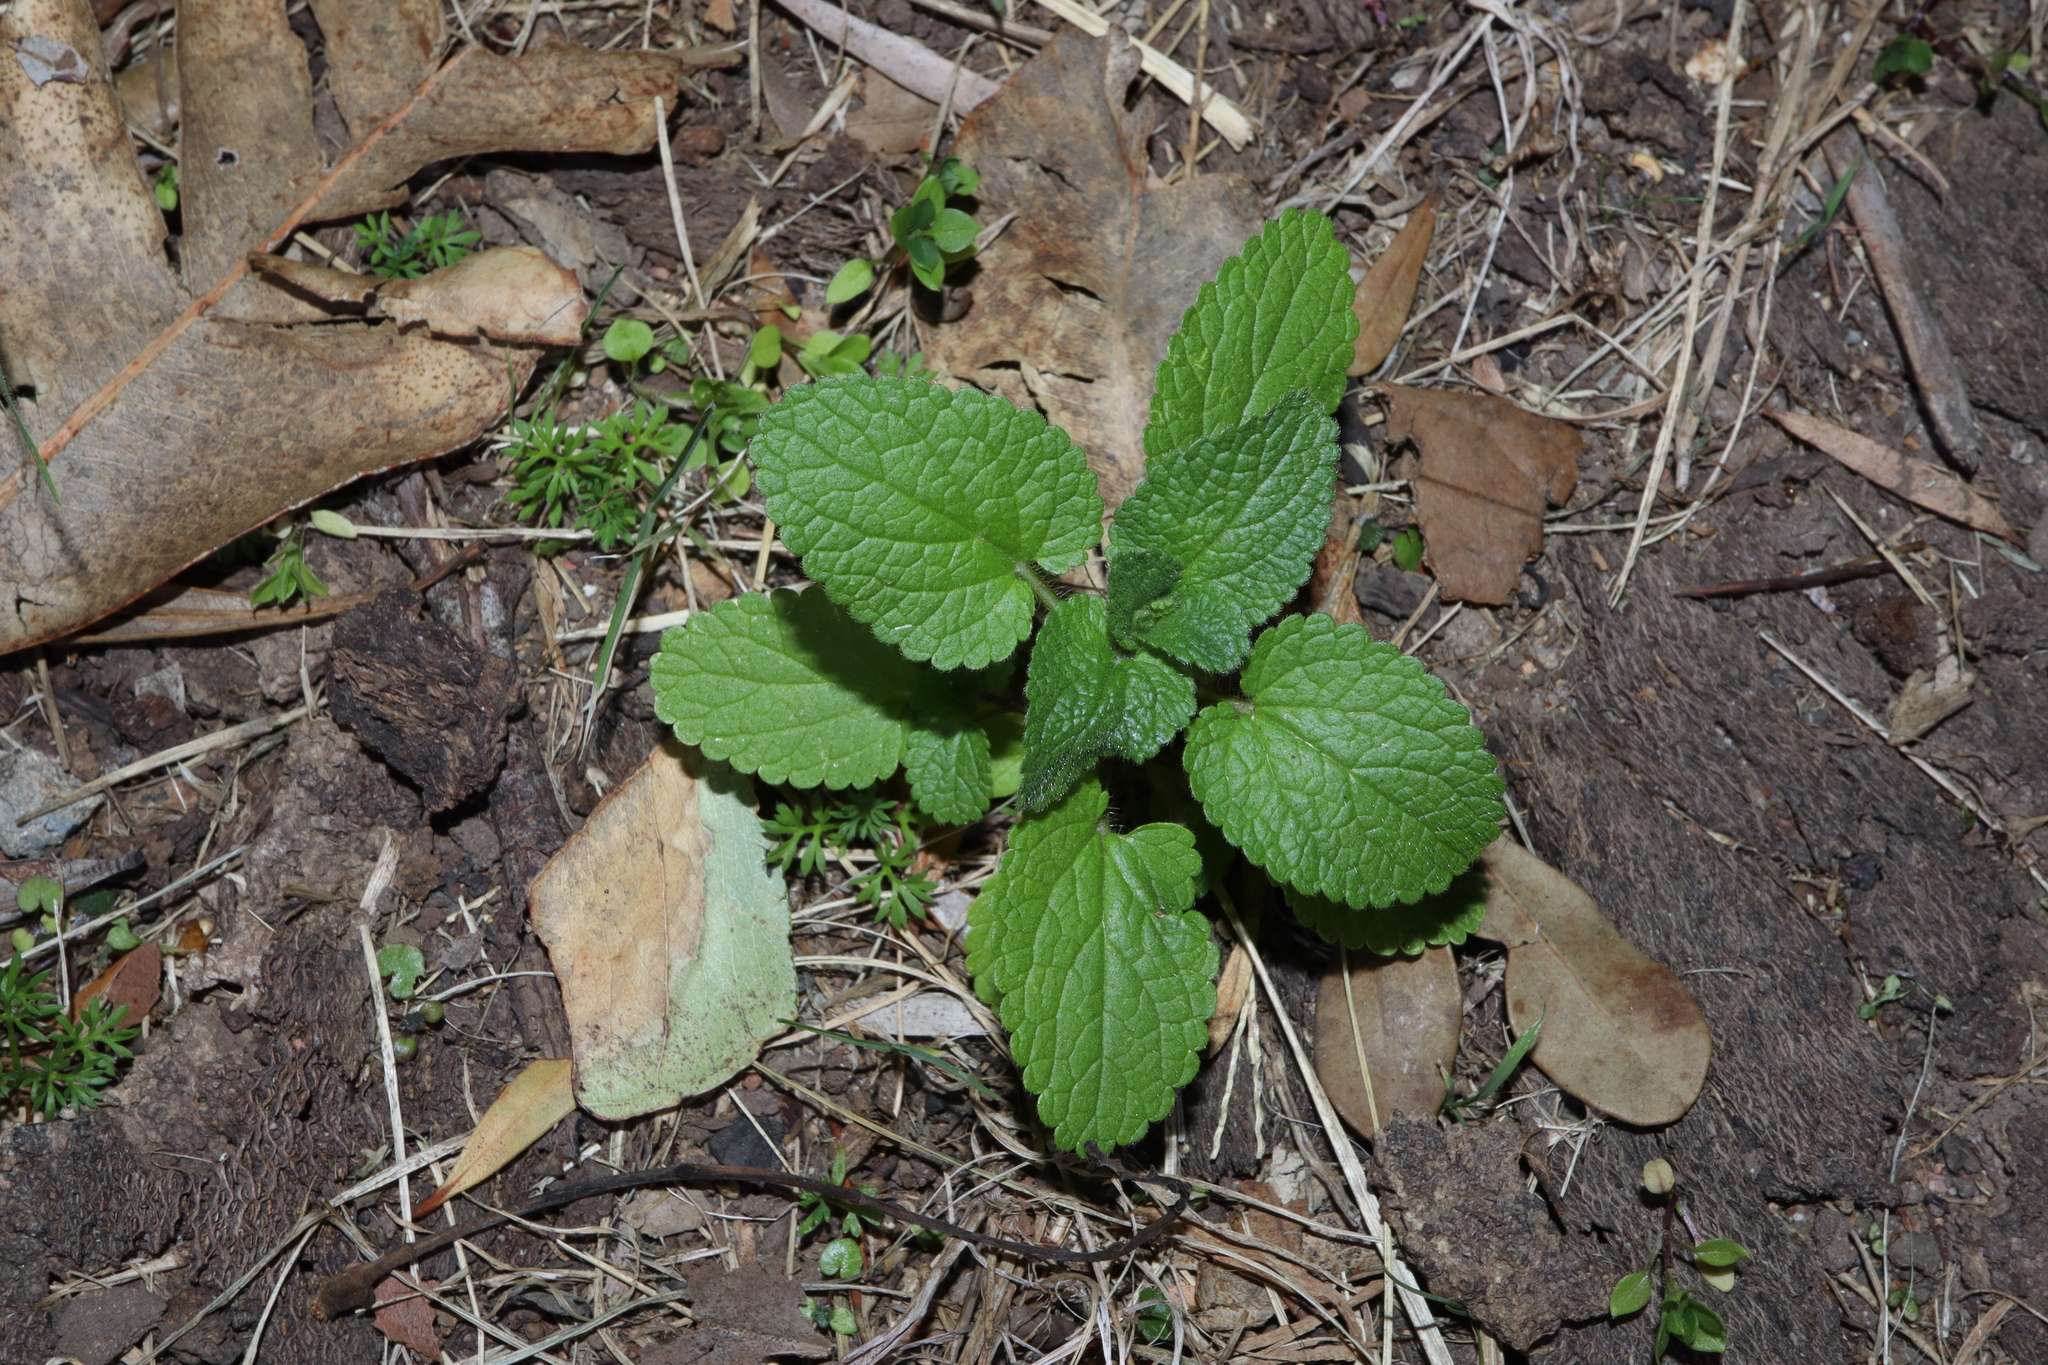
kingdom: Plantae
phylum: Tracheophyta
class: Magnoliopsida
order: Lamiales
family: Lamiaceae
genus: Stachys
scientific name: Stachys arvensis
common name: Field woundwort
